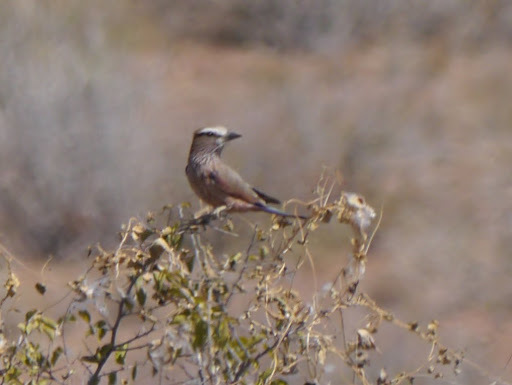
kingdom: Animalia
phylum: Chordata
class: Aves
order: Coraciiformes
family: Coraciidae
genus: Coracias
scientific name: Coracias naevius
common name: Purple roller
